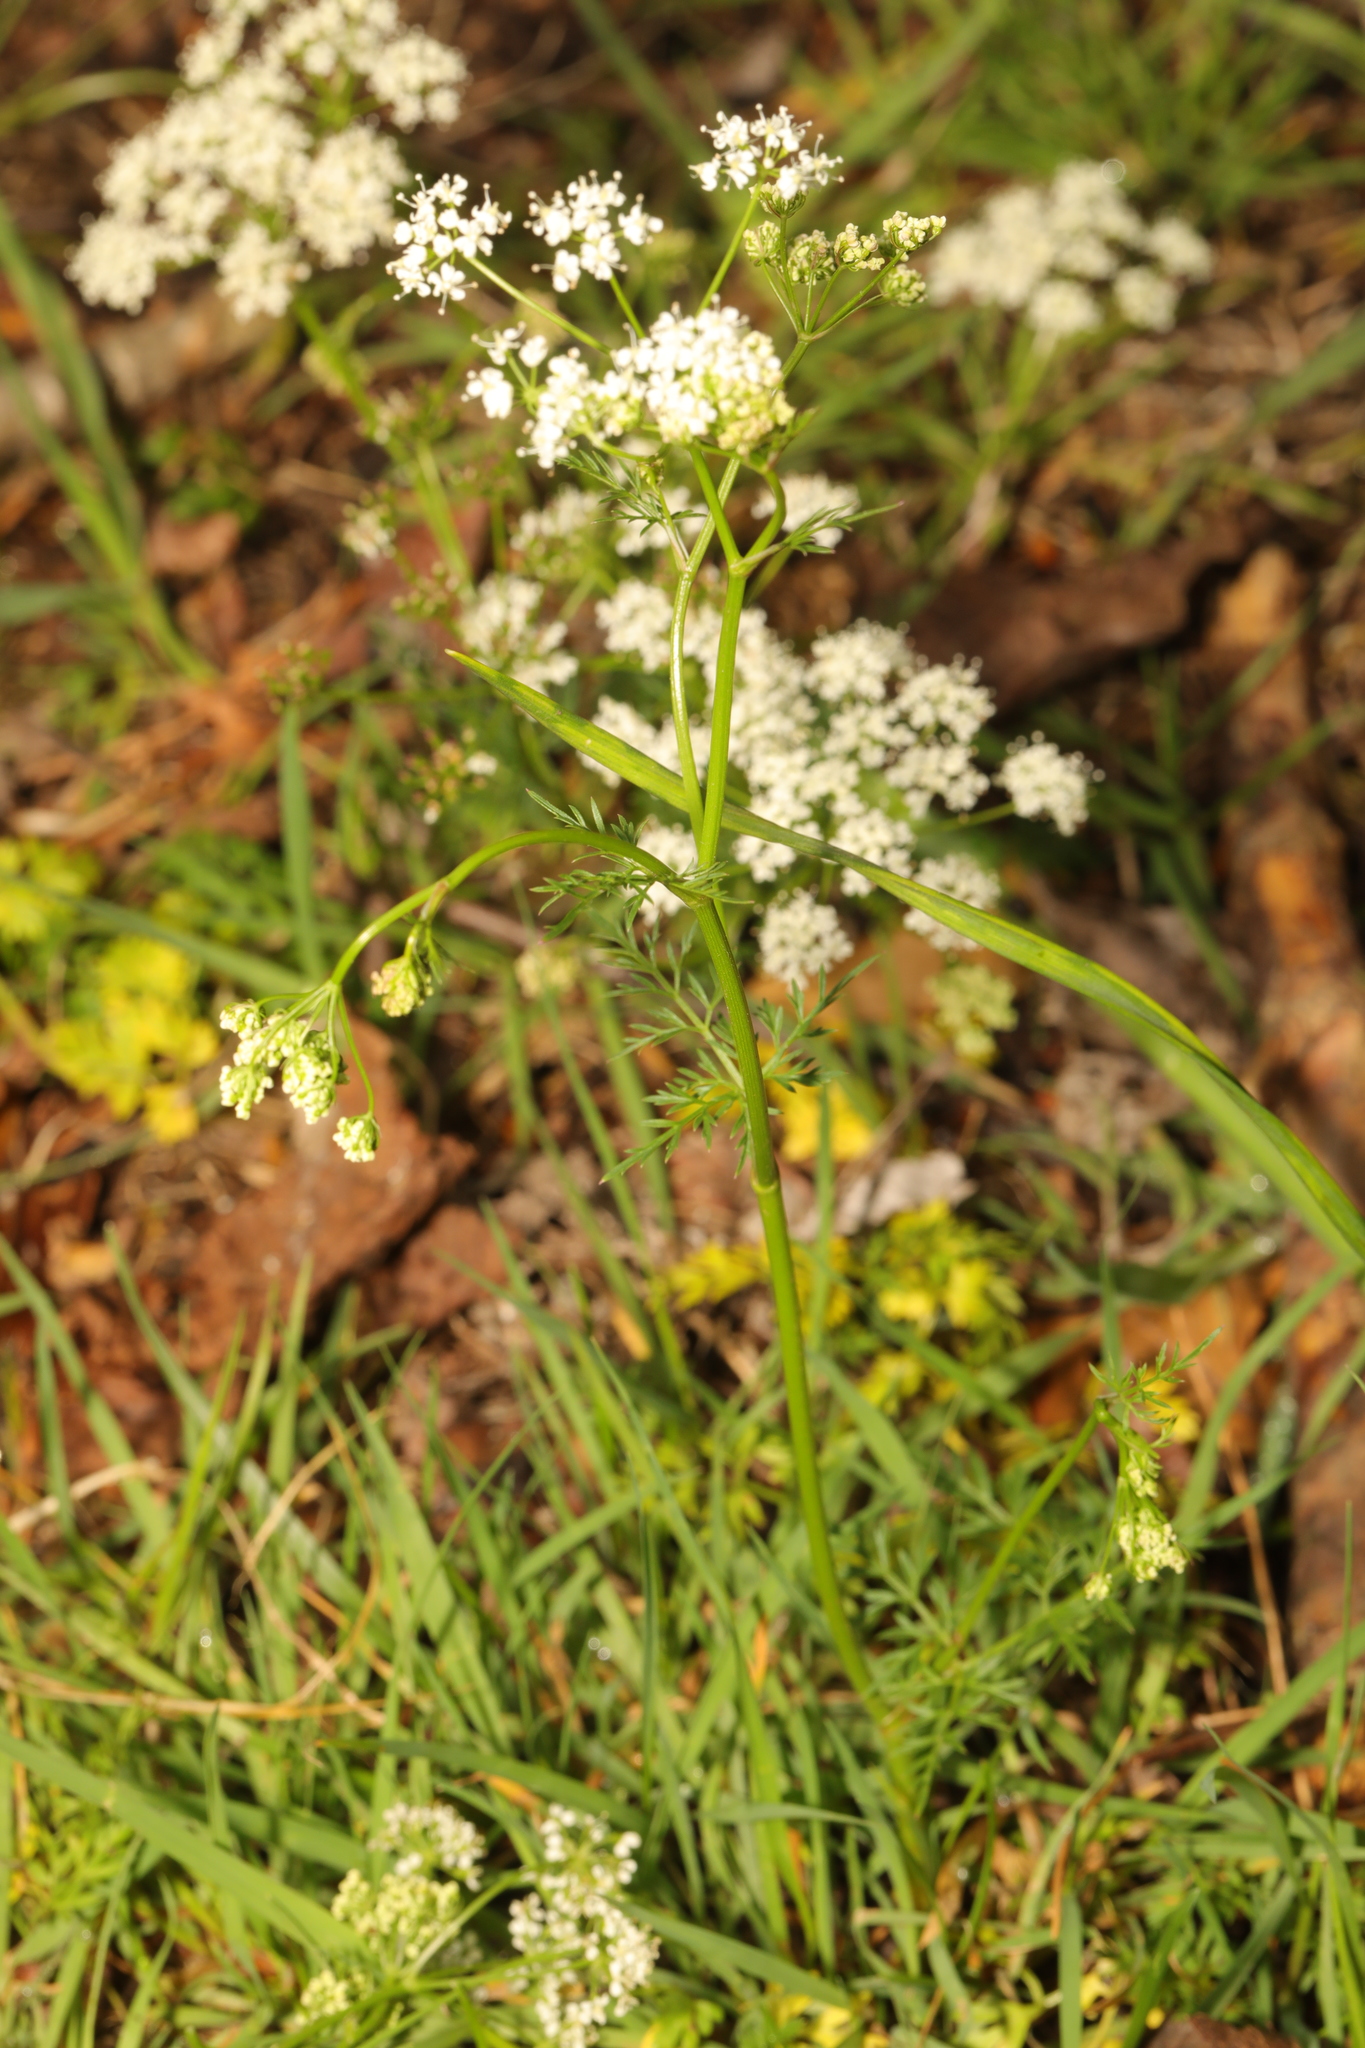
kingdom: Plantae
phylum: Tracheophyta
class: Magnoliopsida
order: Apiales
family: Apiaceae
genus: Conopodium
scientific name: Conopodium majus
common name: Pignut
